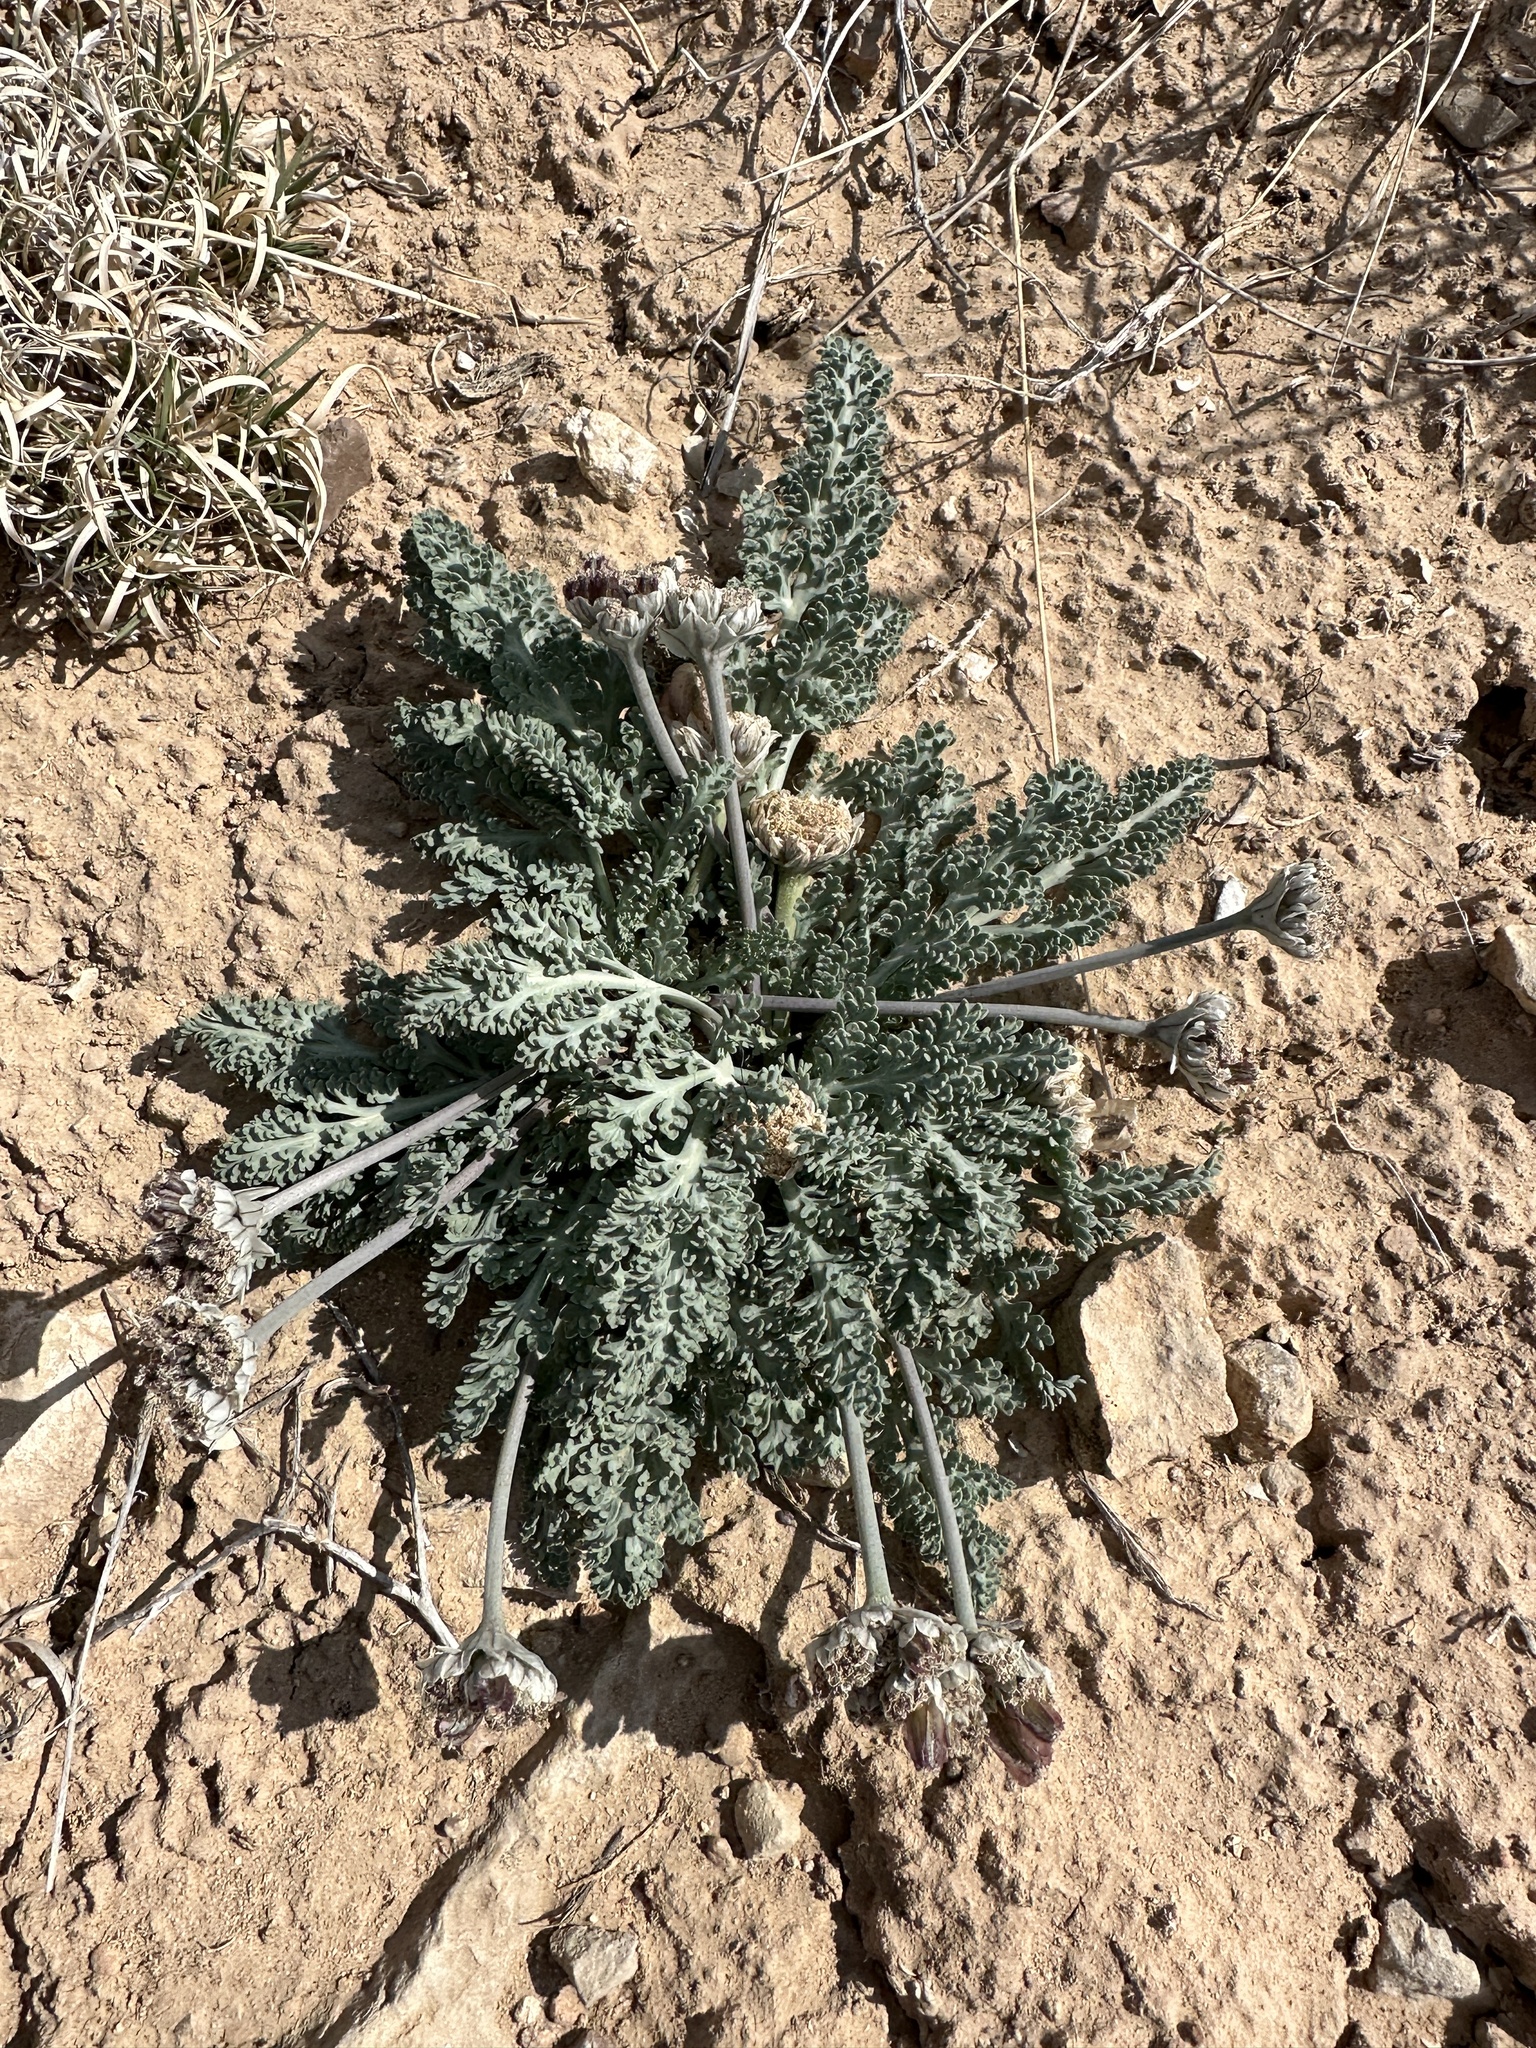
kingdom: Plantae
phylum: Tracheophyta
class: Magnoliopsida
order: Apiales
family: Apiaceae
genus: Vesper
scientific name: Vesper purpurascens
